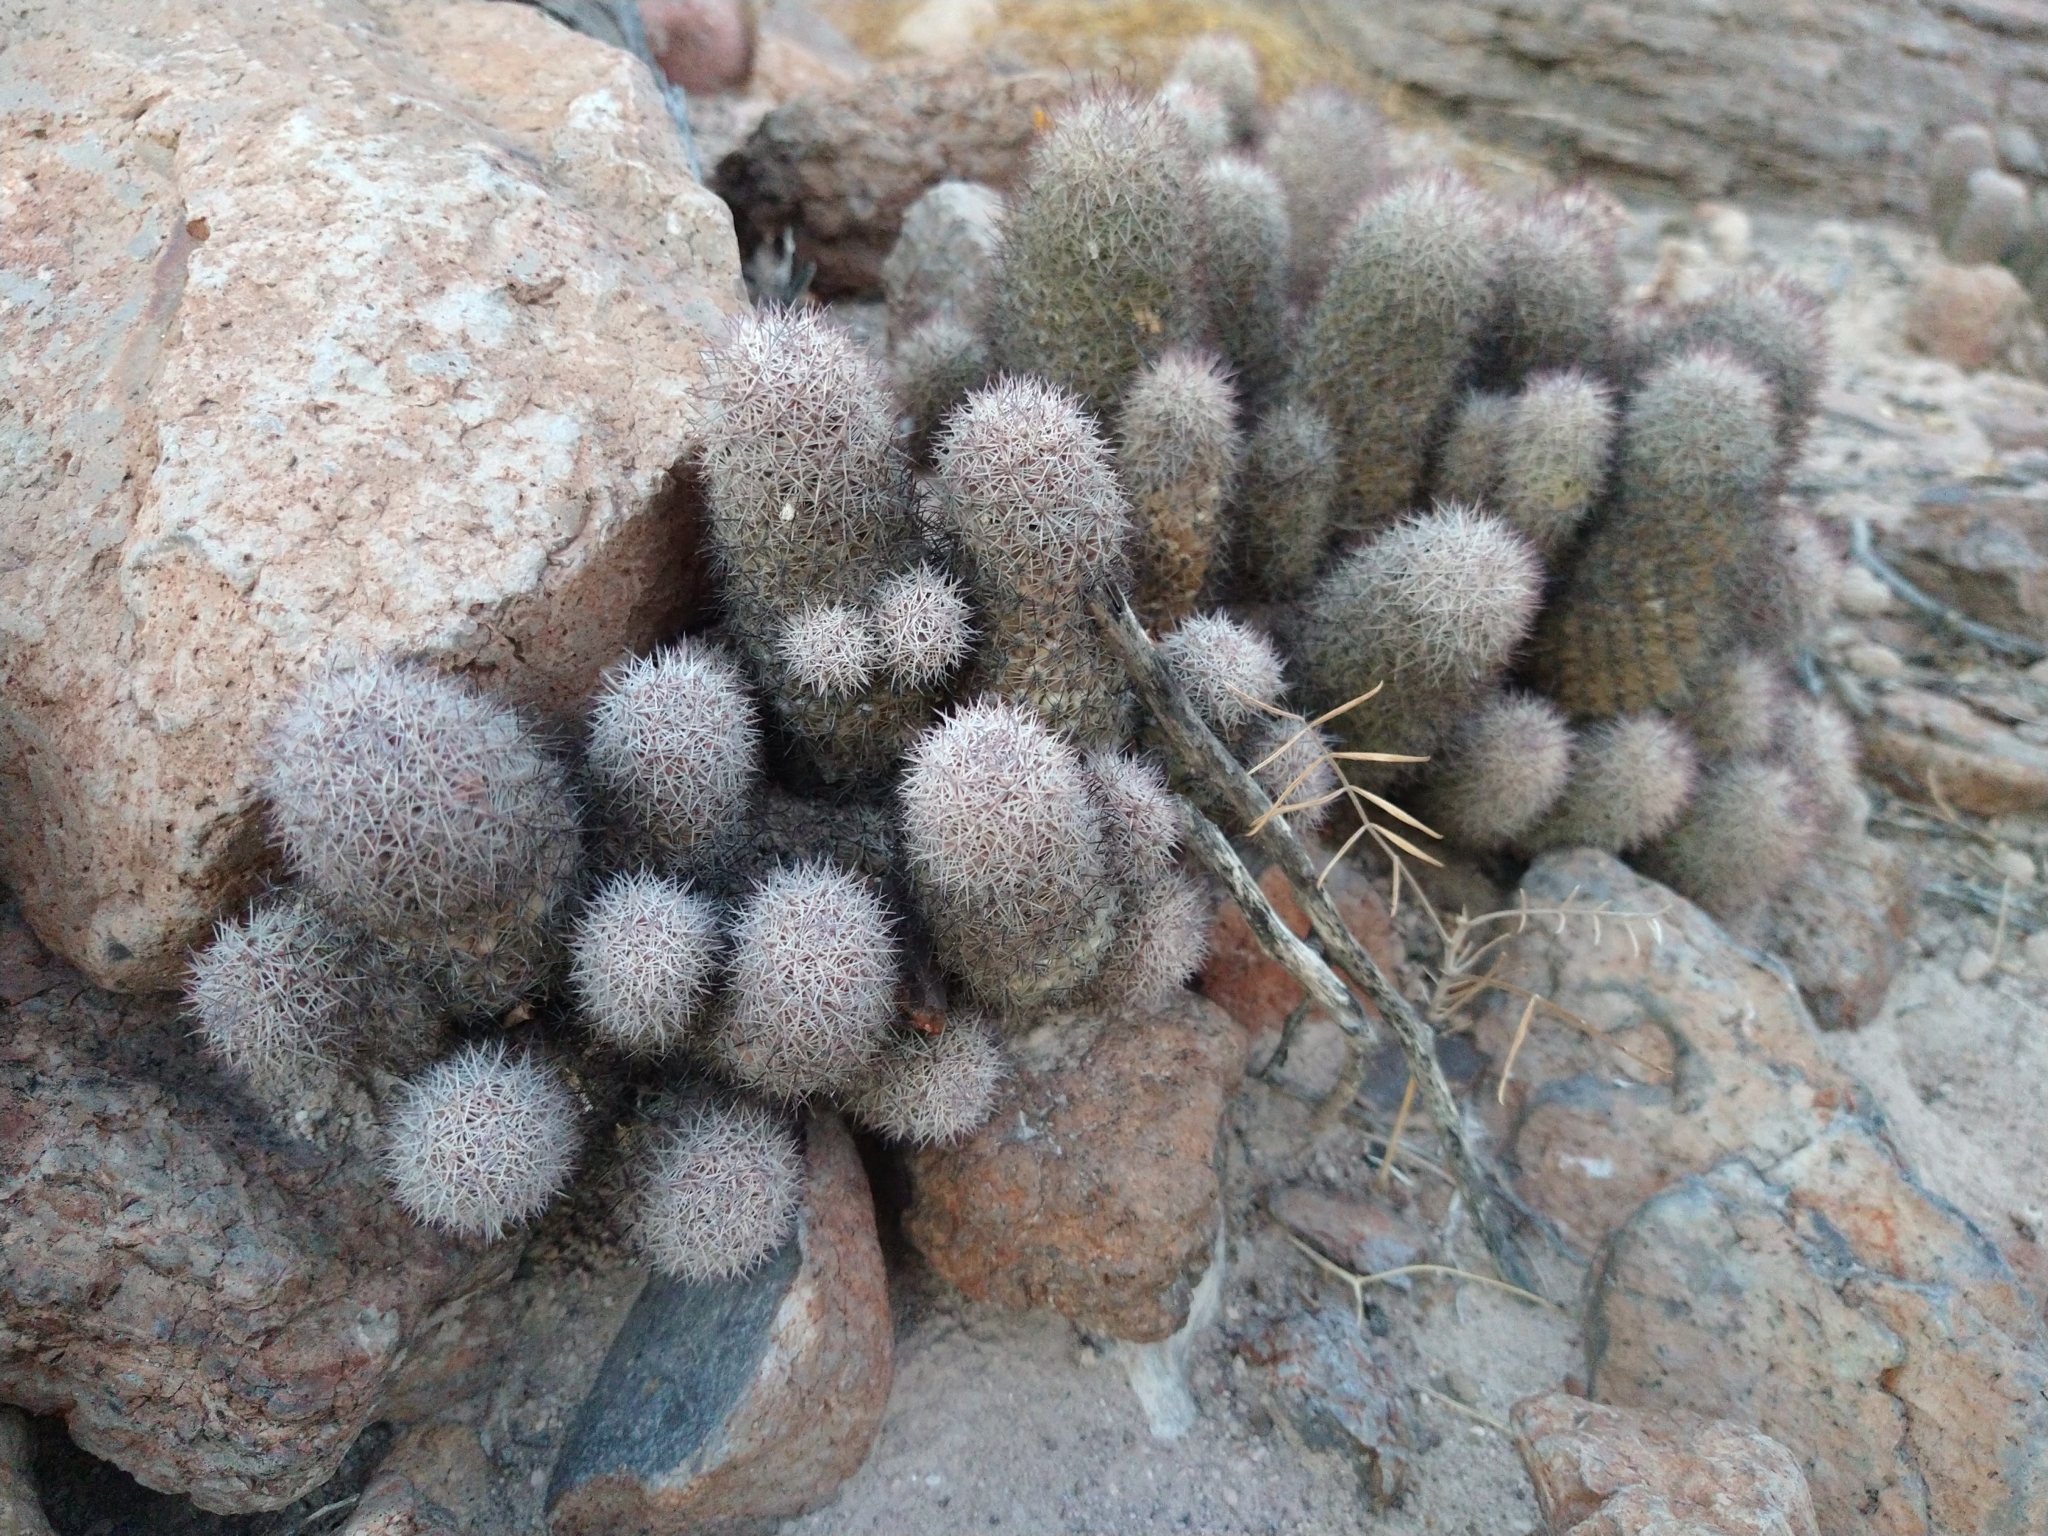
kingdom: Plantae
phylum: Tracheophyta
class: Magnoliopsida
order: Caryophyllales
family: Cactaceae
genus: Cochemiea
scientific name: Cochemiea fraileana
